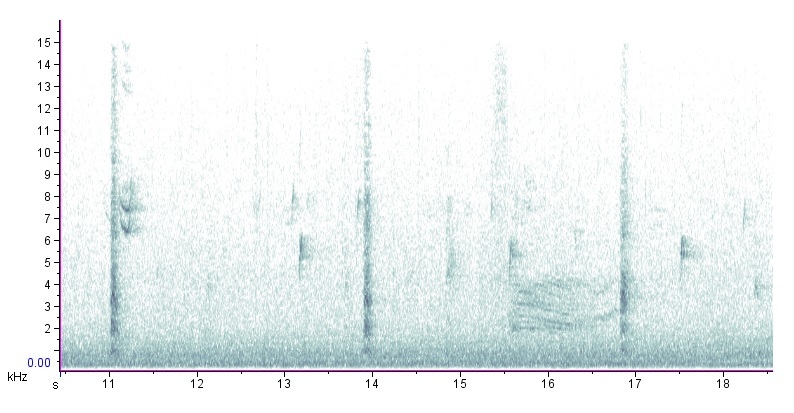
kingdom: Animalia
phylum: Chordata
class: Aves
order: Passeriformes
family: Mimidae
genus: Toxostoma
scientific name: Toxostoma rufum
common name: Brown thrasher
